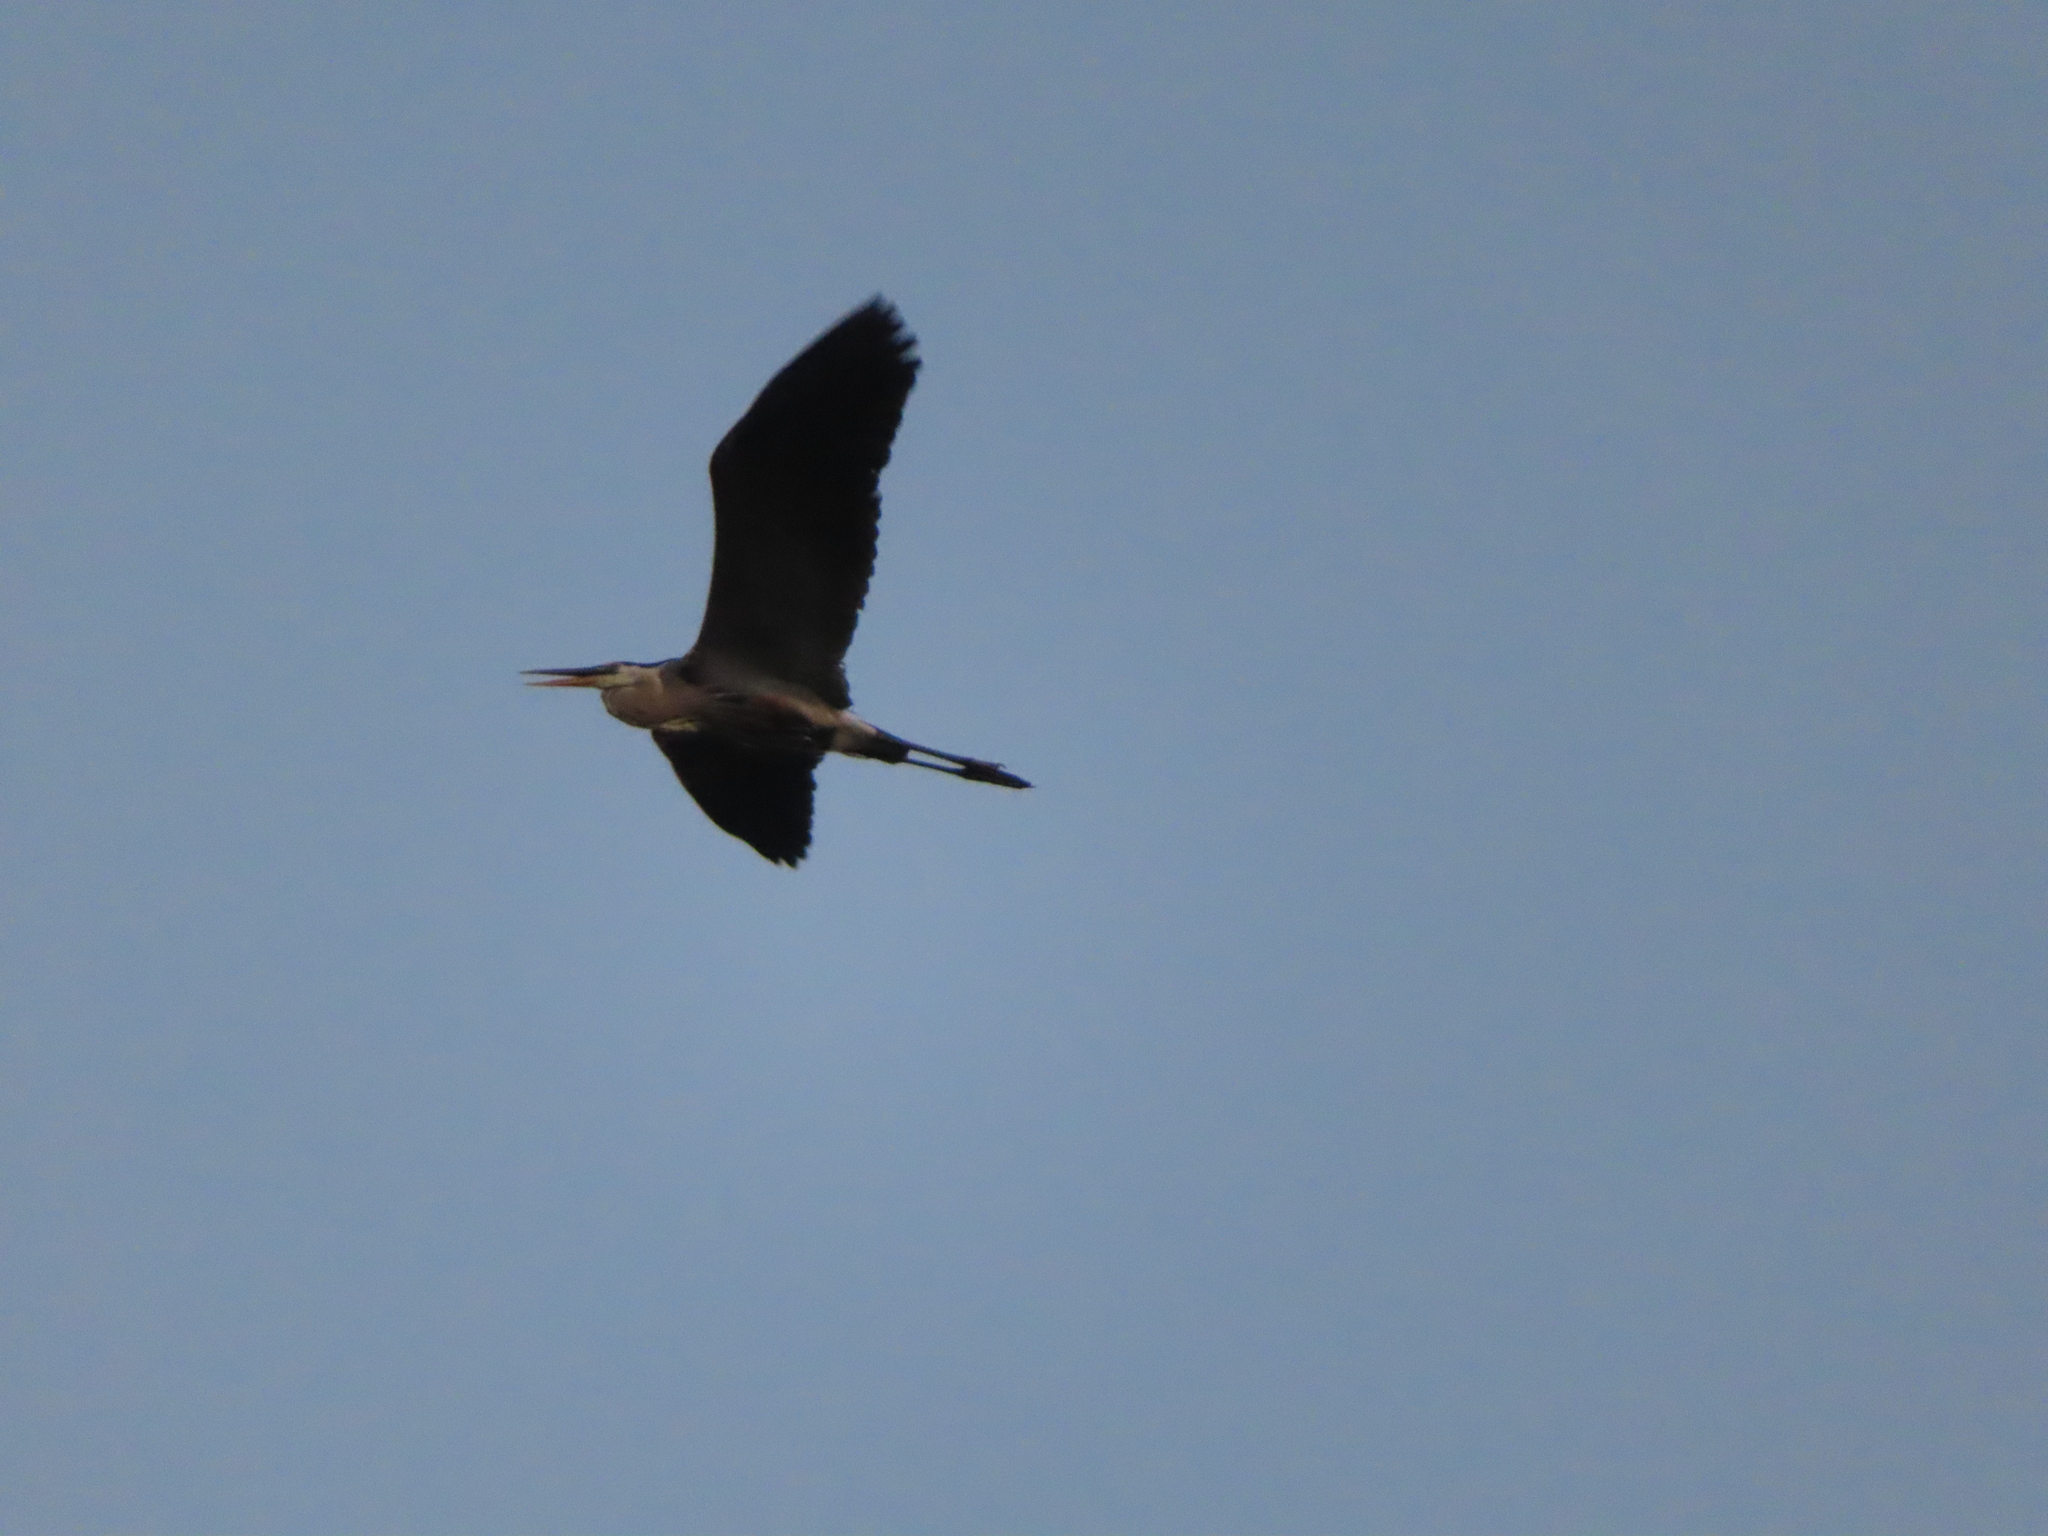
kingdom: Animalia
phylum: Chordata
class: Aves
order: Pelecaniformes
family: Ardeidae
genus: Ardea
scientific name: Ardea herodias
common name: Great blue heron
